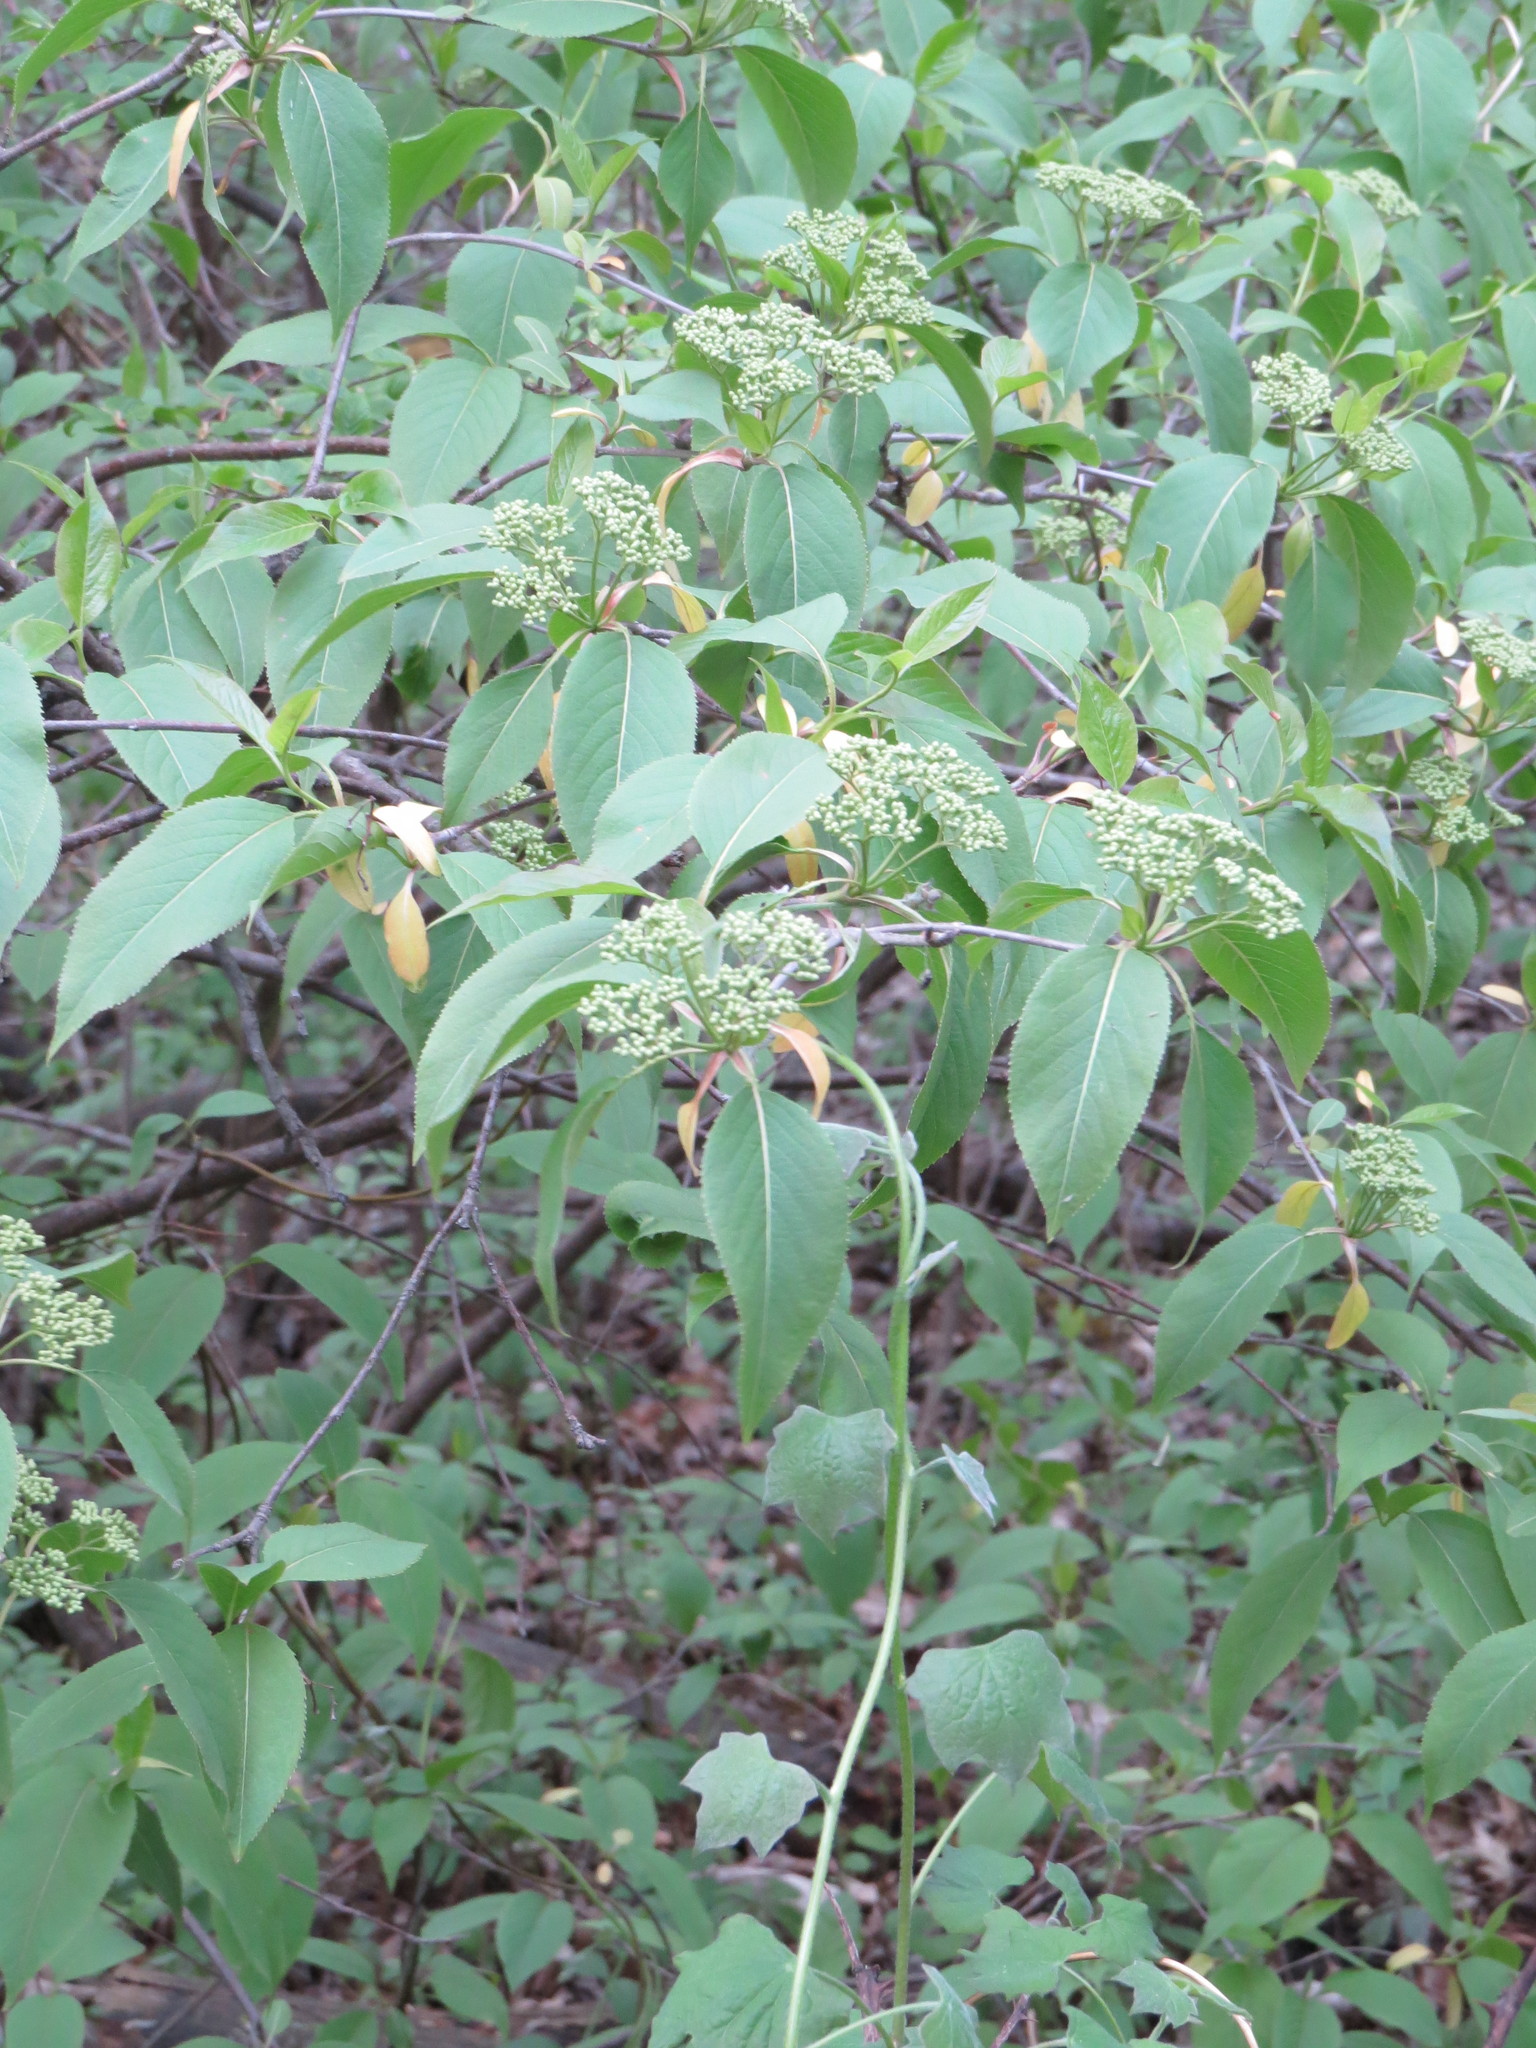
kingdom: Plantae
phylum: Tracheophyta
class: Magnoliopsida
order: Dipsacales
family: Viburnaceae
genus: Viburnum
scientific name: Viburnum lentago
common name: Black haw
